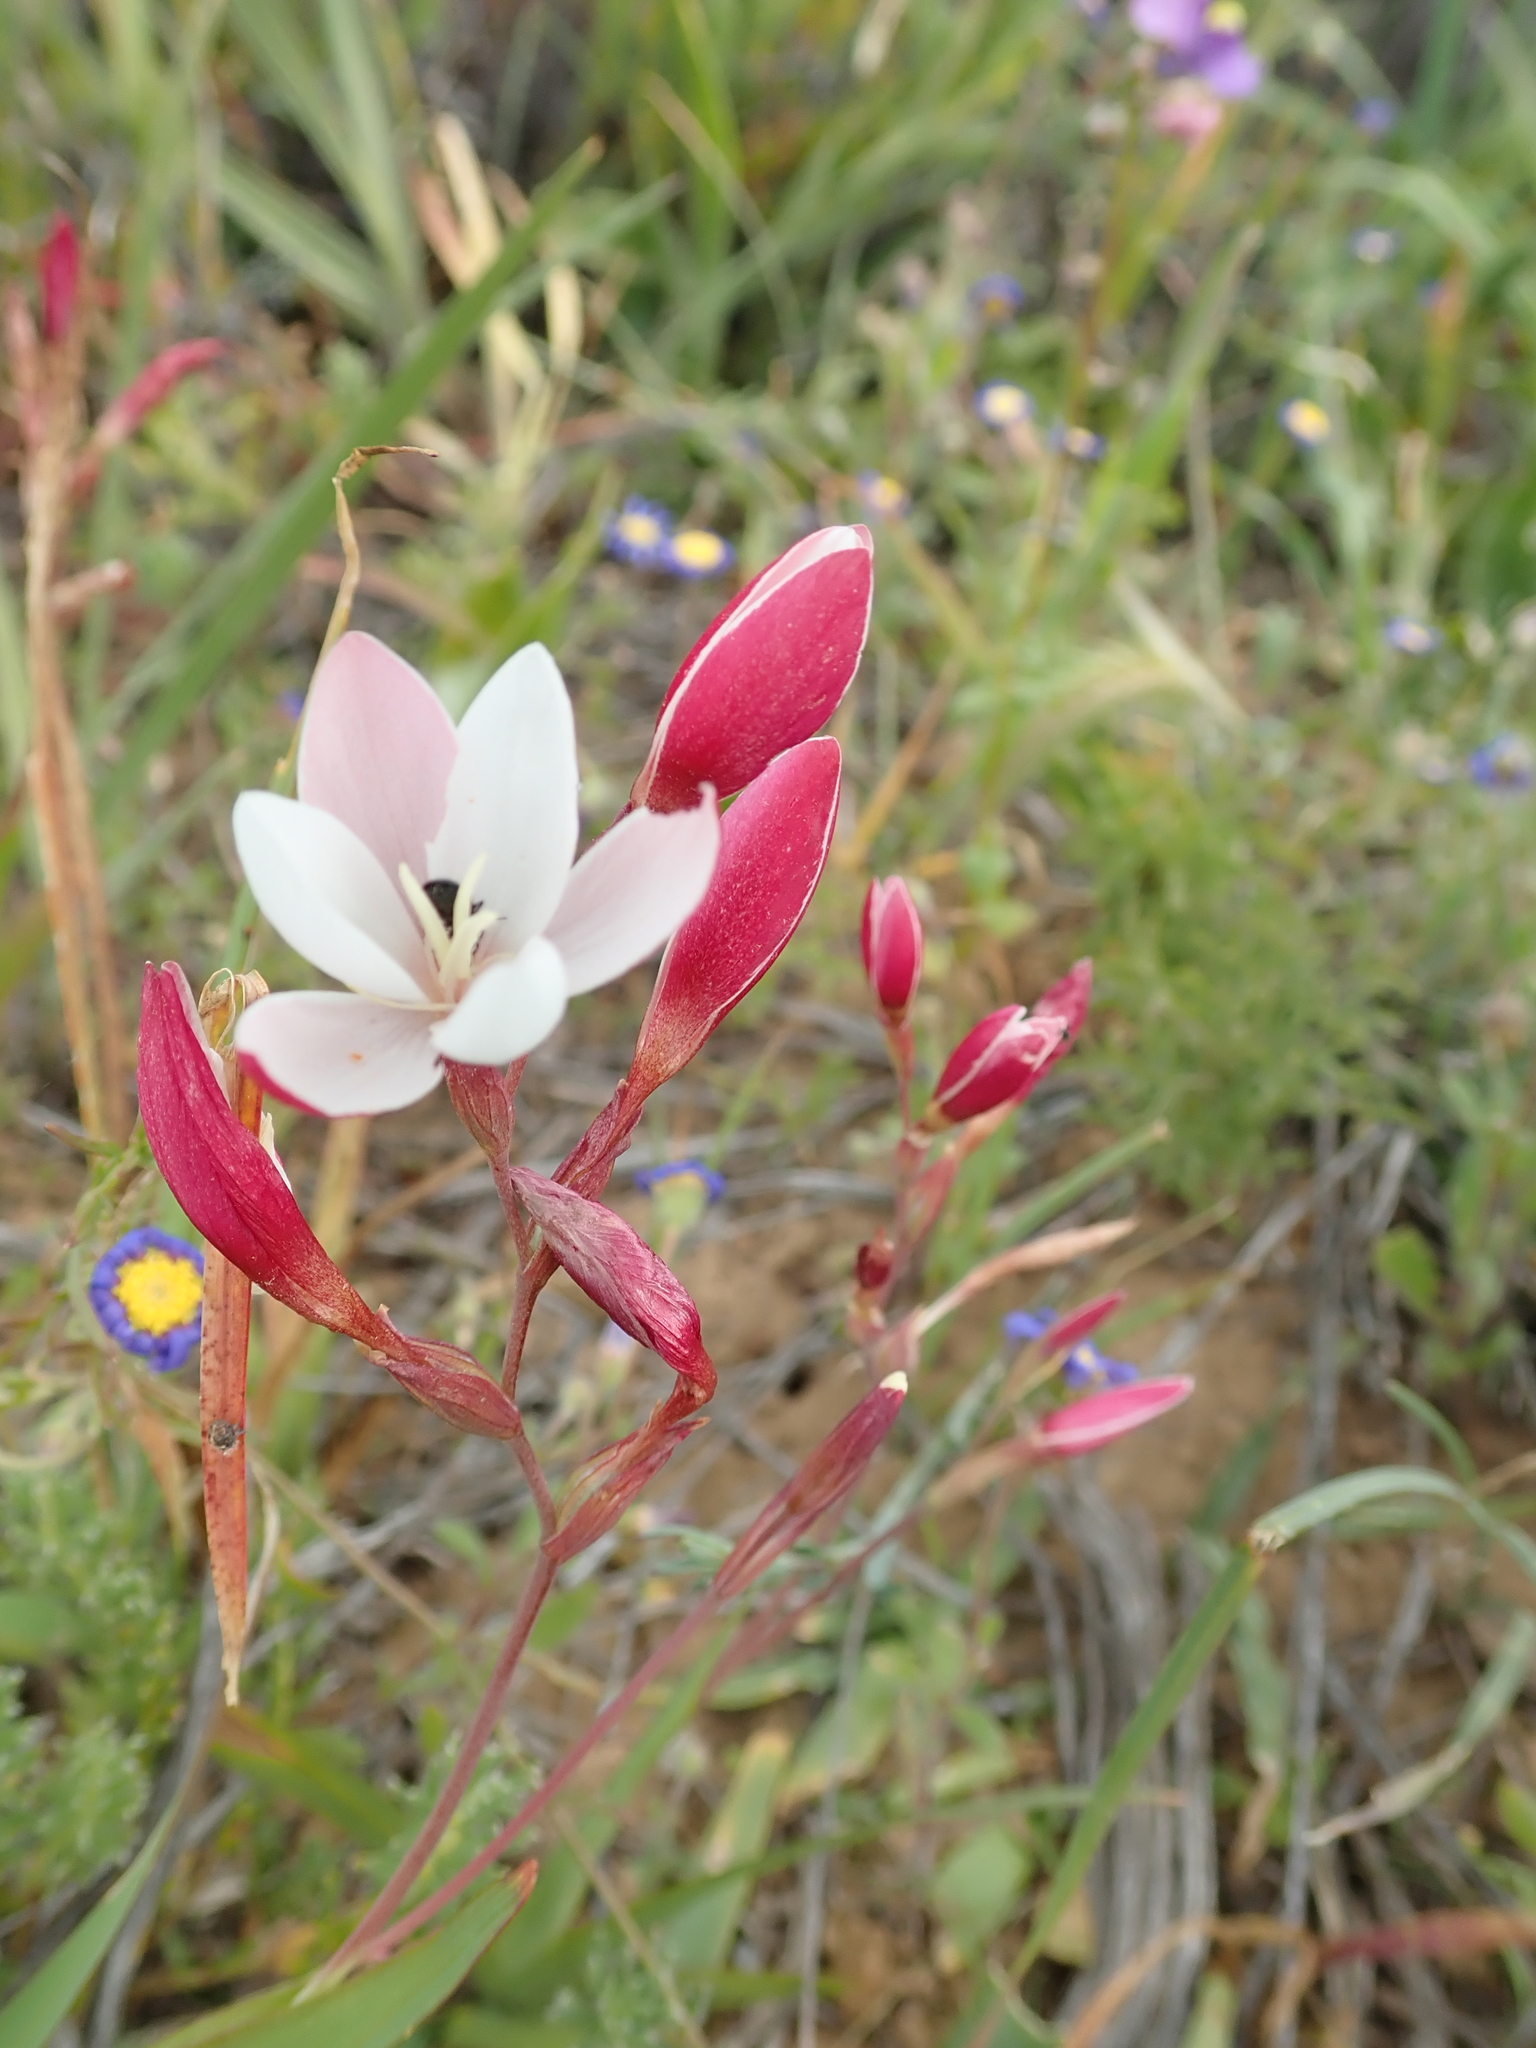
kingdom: Plantae
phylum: Tracheophyta
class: Liliopsida
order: Asparagales
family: Iridaceae
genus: Hesperantha
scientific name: Hesperantha cucullata
